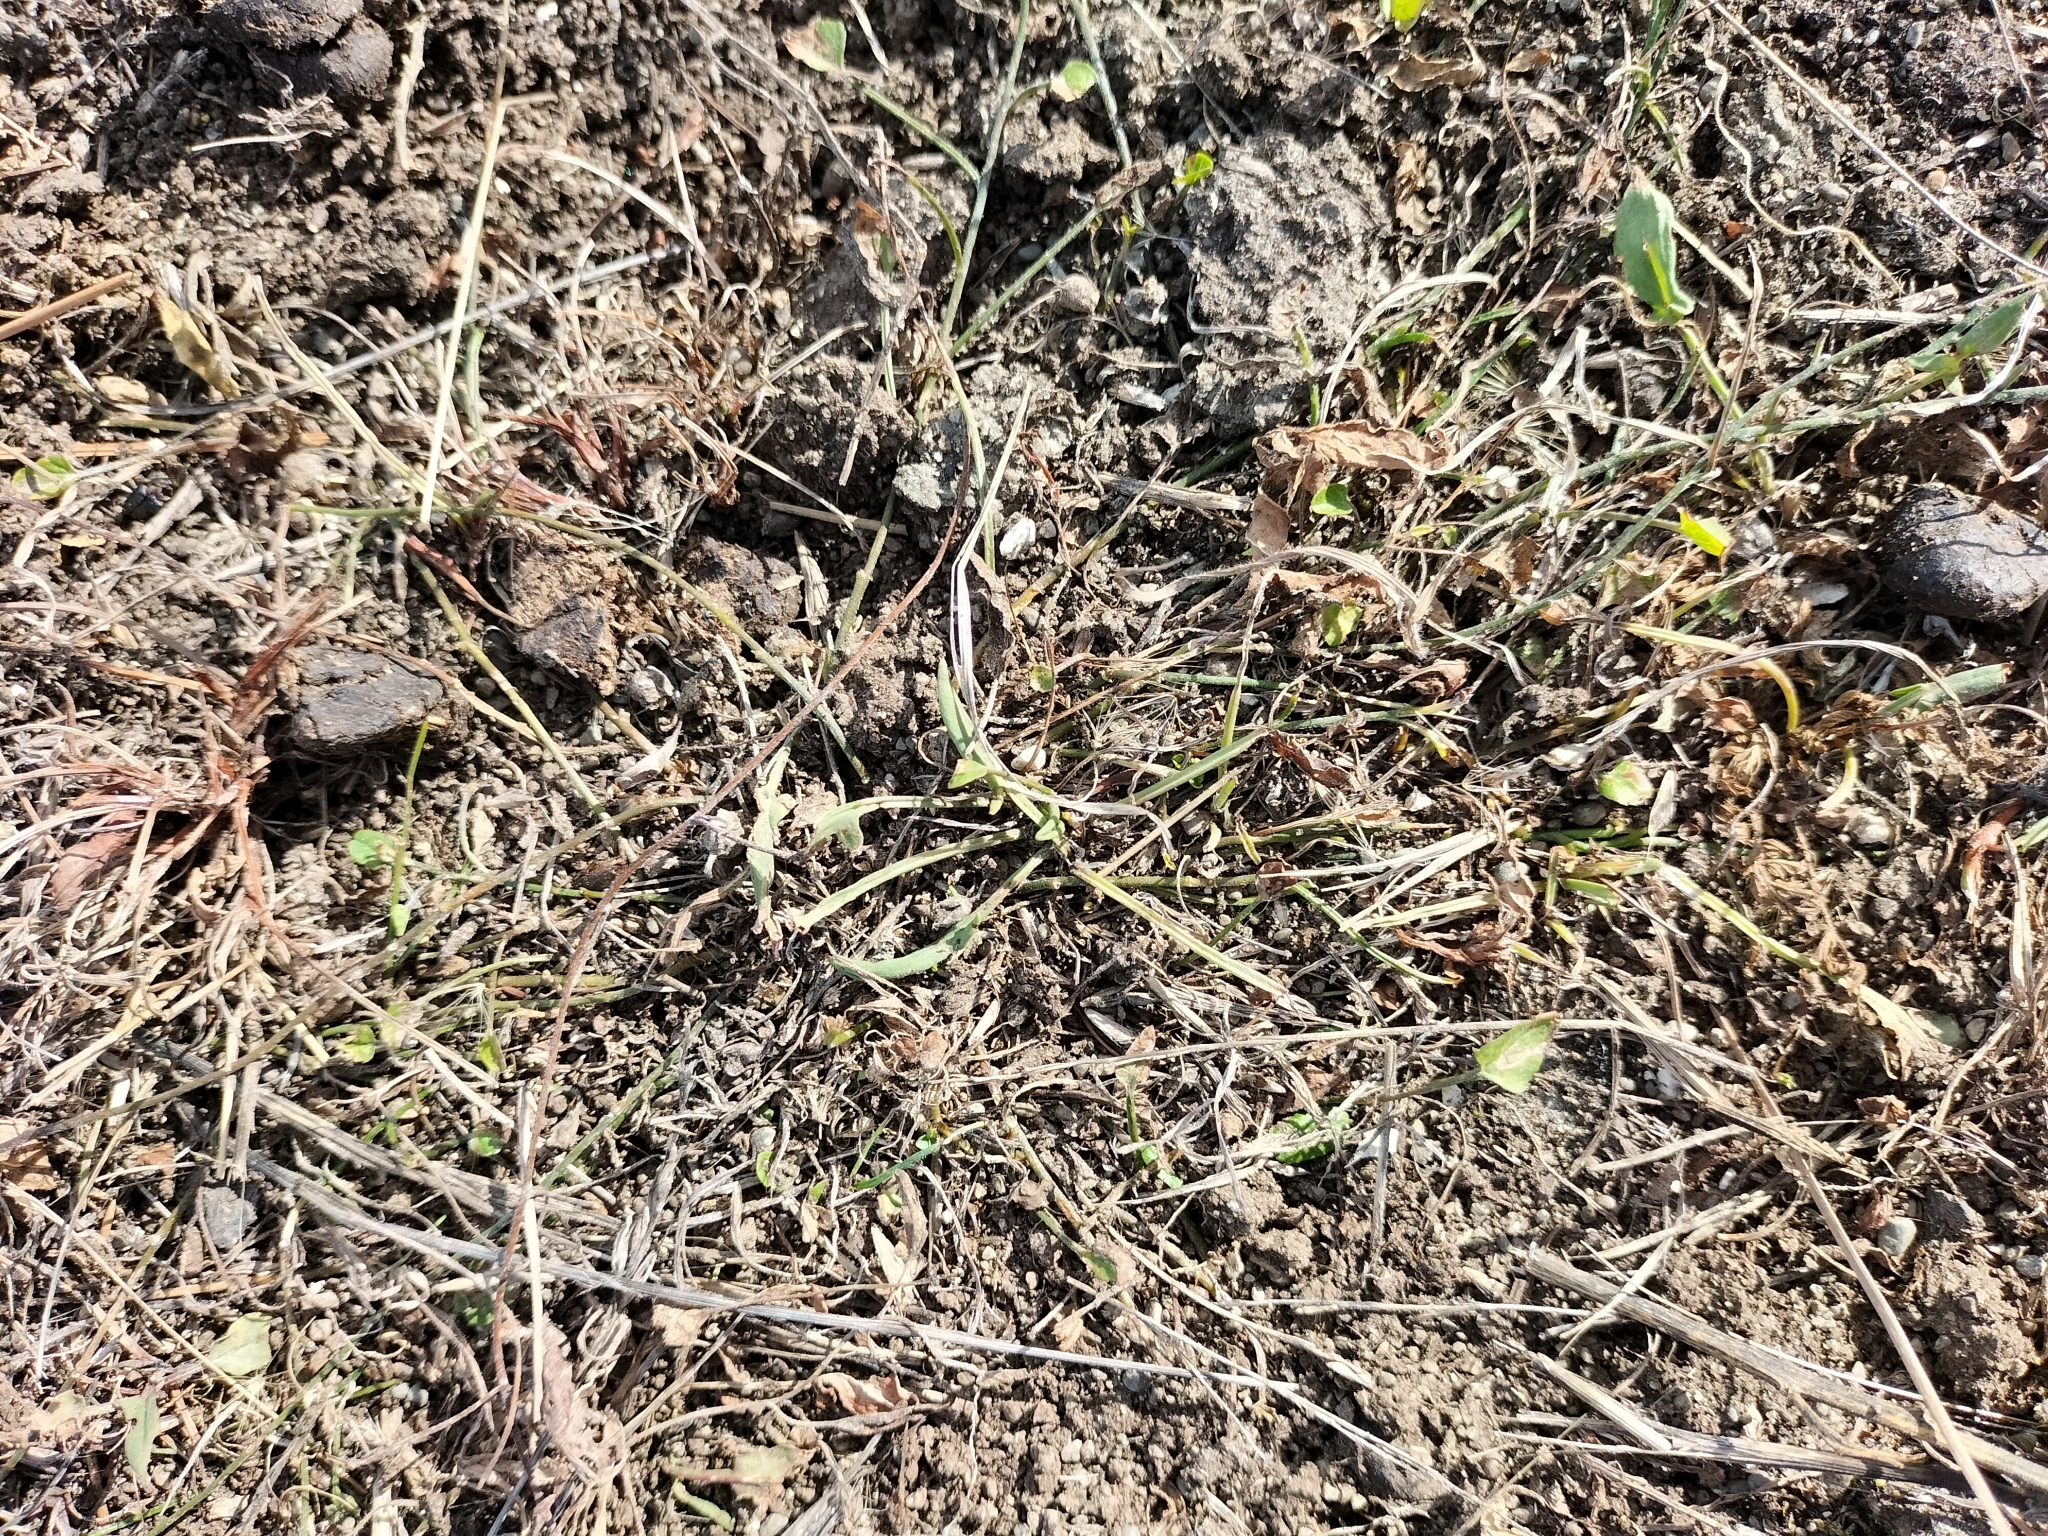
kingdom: Plantae
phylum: Tracheophyta
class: Magnoliopsida
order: Solanales
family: Convolvulaceae
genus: Convolvulus
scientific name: Convolvulus waitaha
